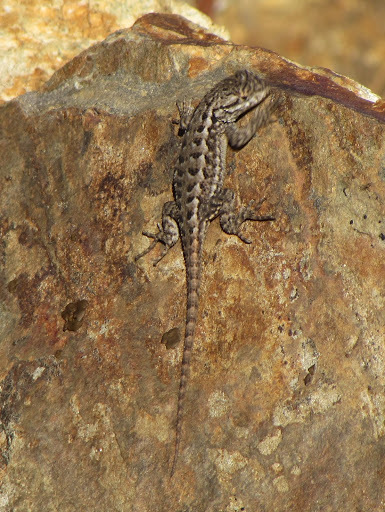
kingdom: Animalia
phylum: Chordata
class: Squamata
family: Phrynosomatidae
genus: Sceloporus
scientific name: Sceloporus occidentalis
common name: Western fence lizard
